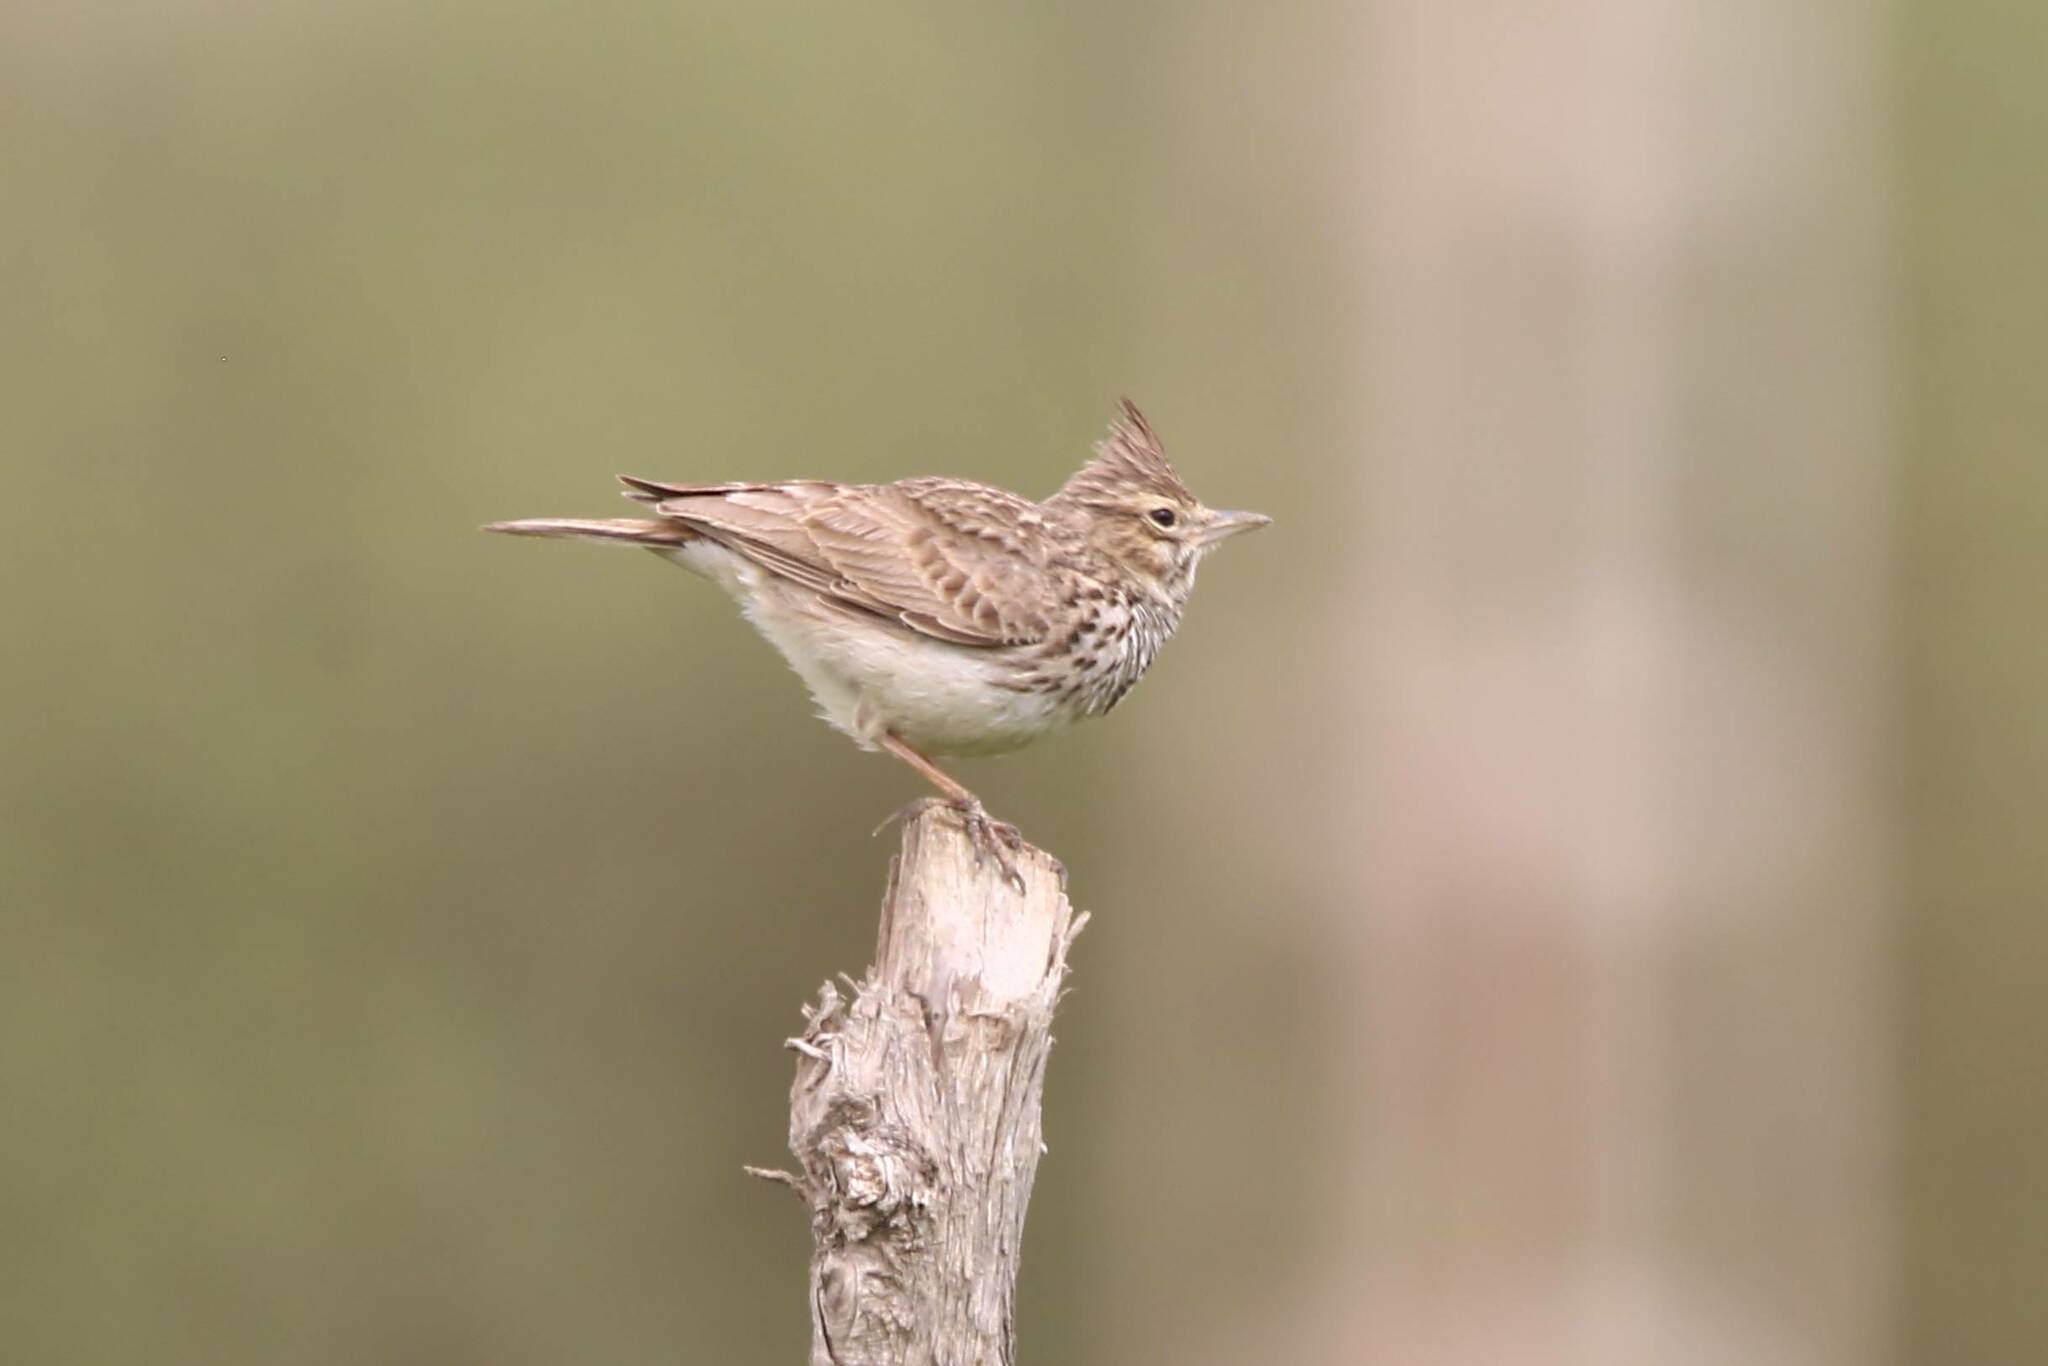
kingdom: Animalia
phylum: Chordata
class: Aves
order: Passeriformes
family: Alaudidae
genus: Galerida
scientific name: Galerida theklae
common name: Thekla lark
